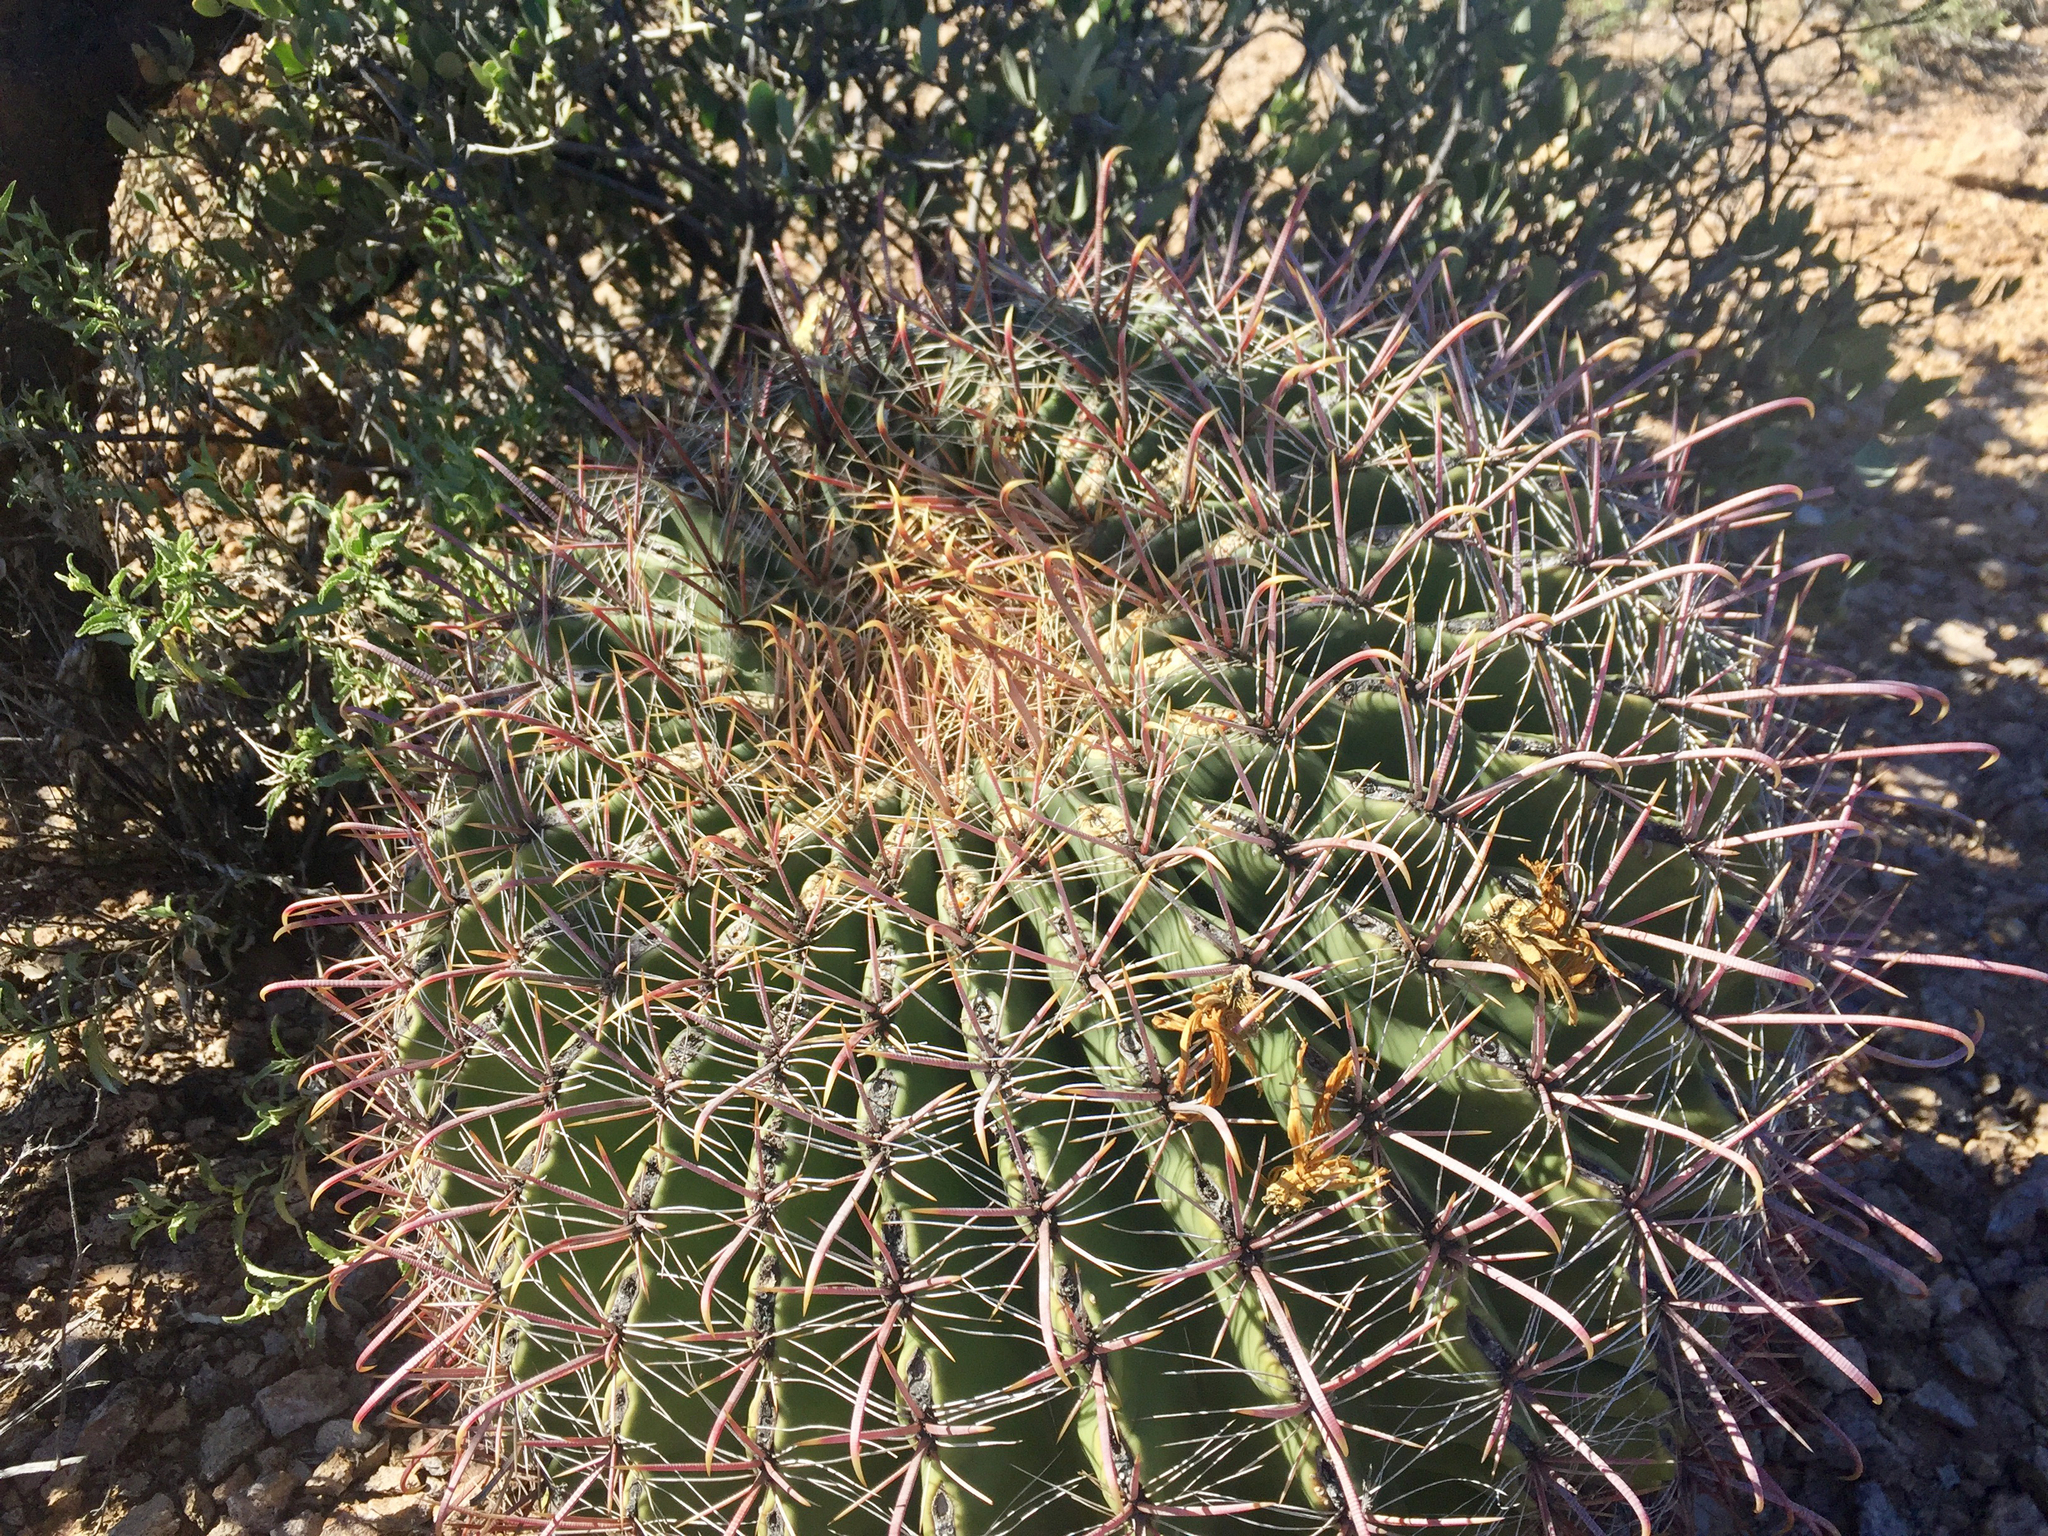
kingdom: Plantae
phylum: Tracheophyta
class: Magnoliopsida
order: Caryophyllales
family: Cactaceae
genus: Ferocactus
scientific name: Ferocactus wislizeni
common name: Candy barrel cactus
